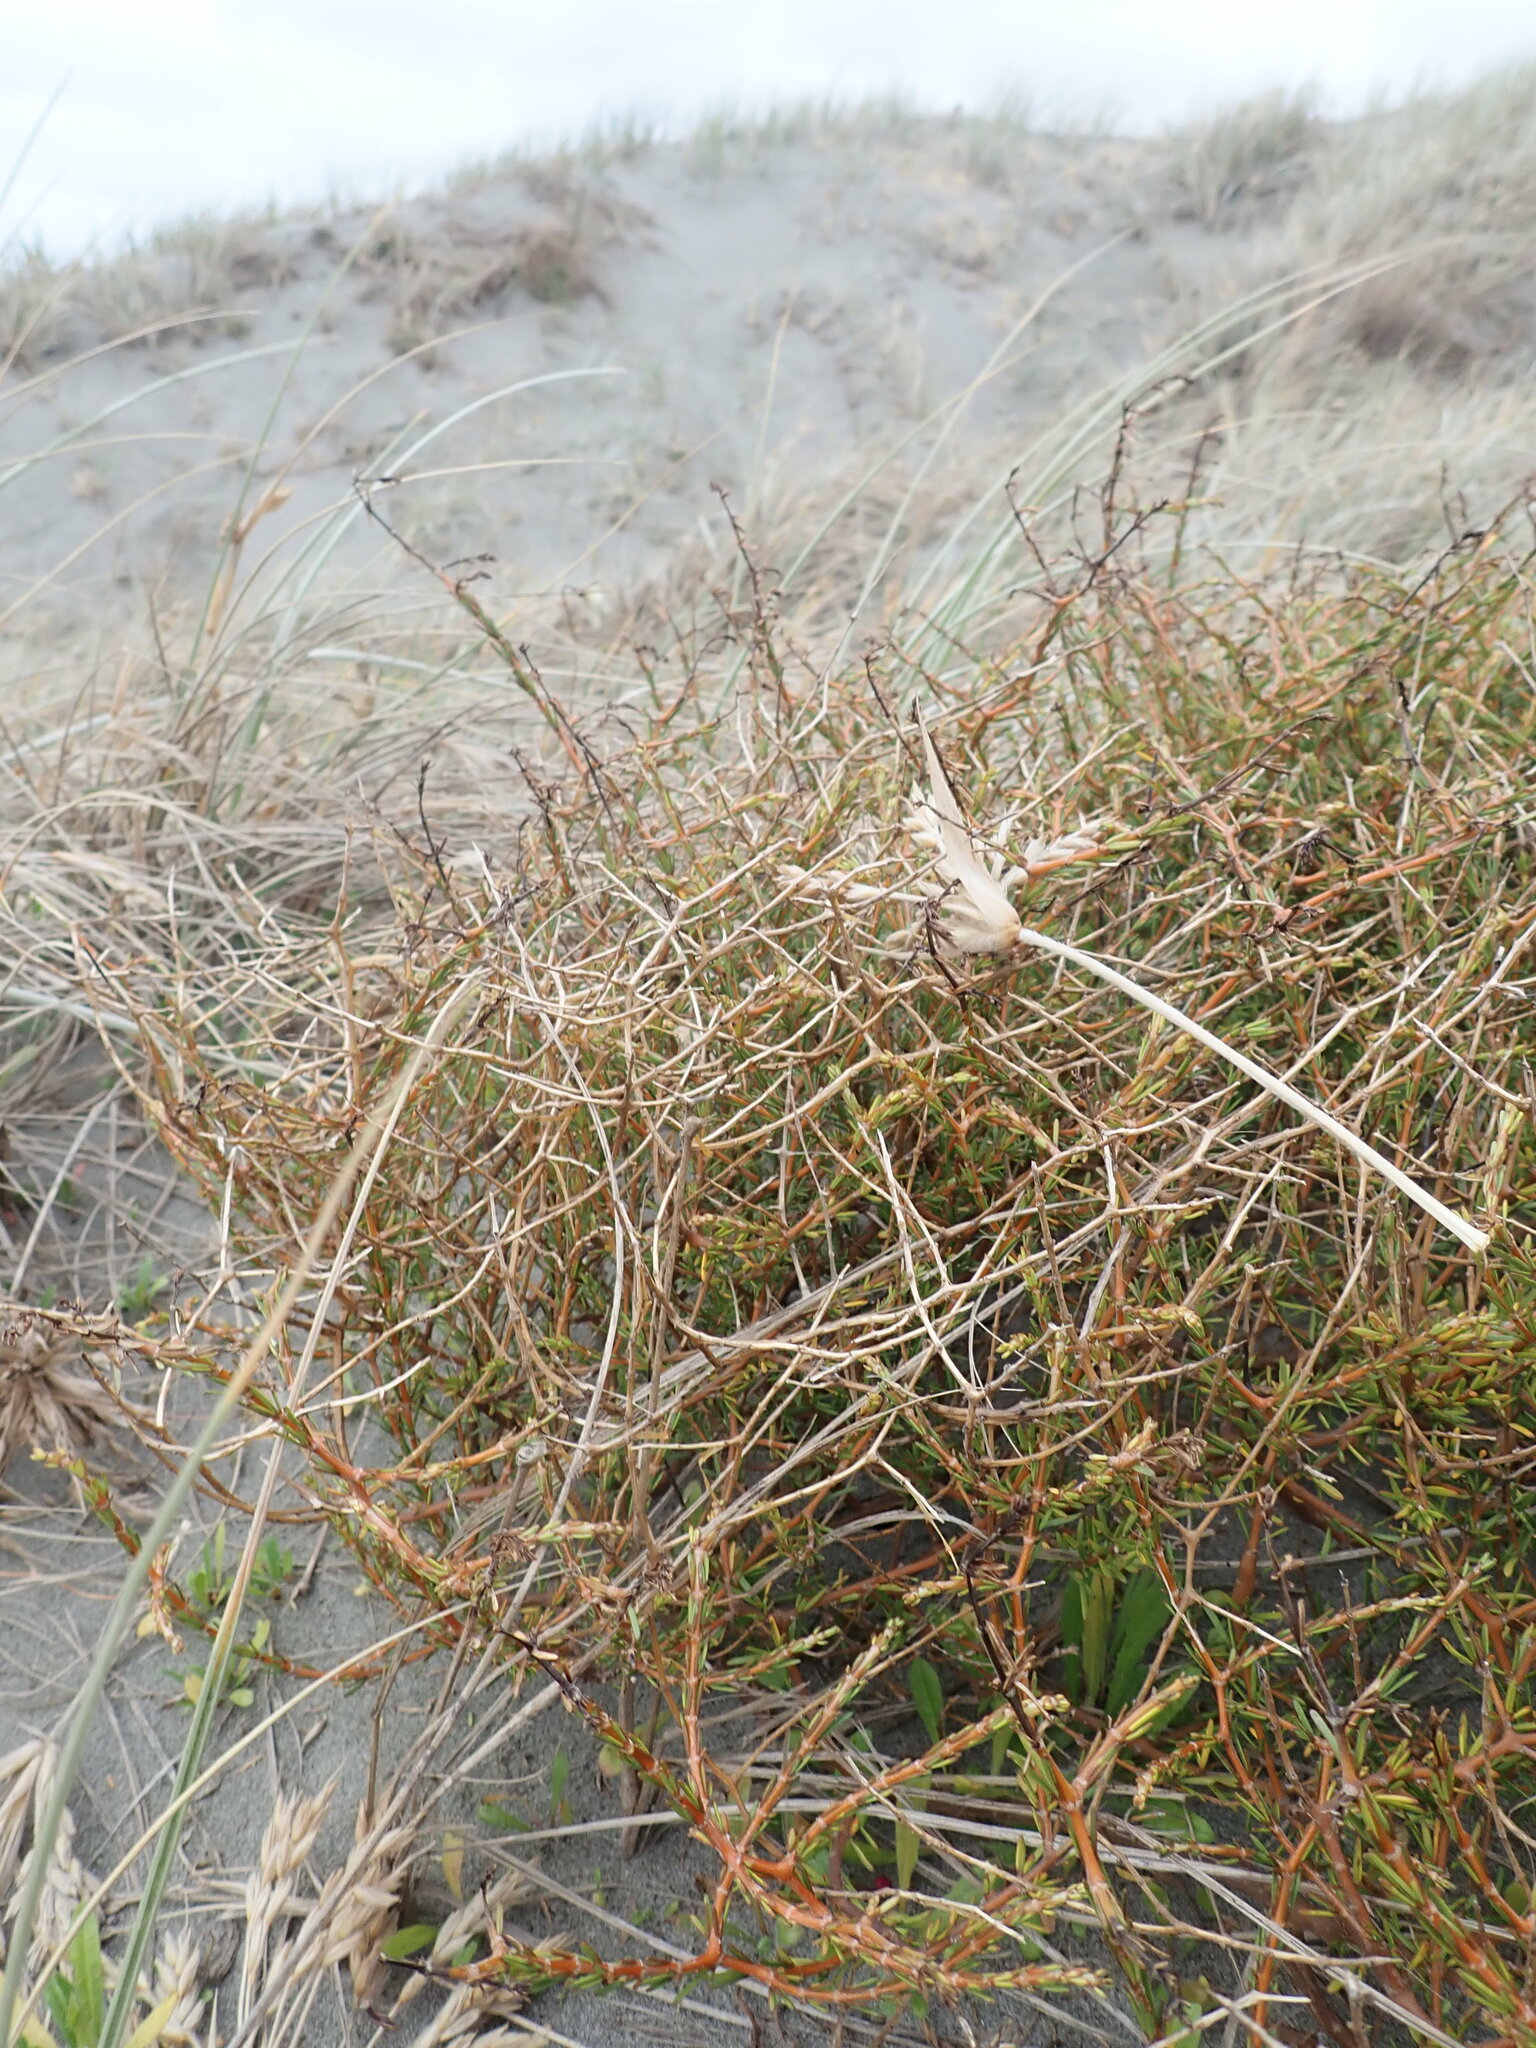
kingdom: Plantae
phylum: Tracheophyta
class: Magnoliopsida
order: Gentianales
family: Rubiaceae
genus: Coprosma
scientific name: Coprosma acerosa
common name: Sand coprosma
